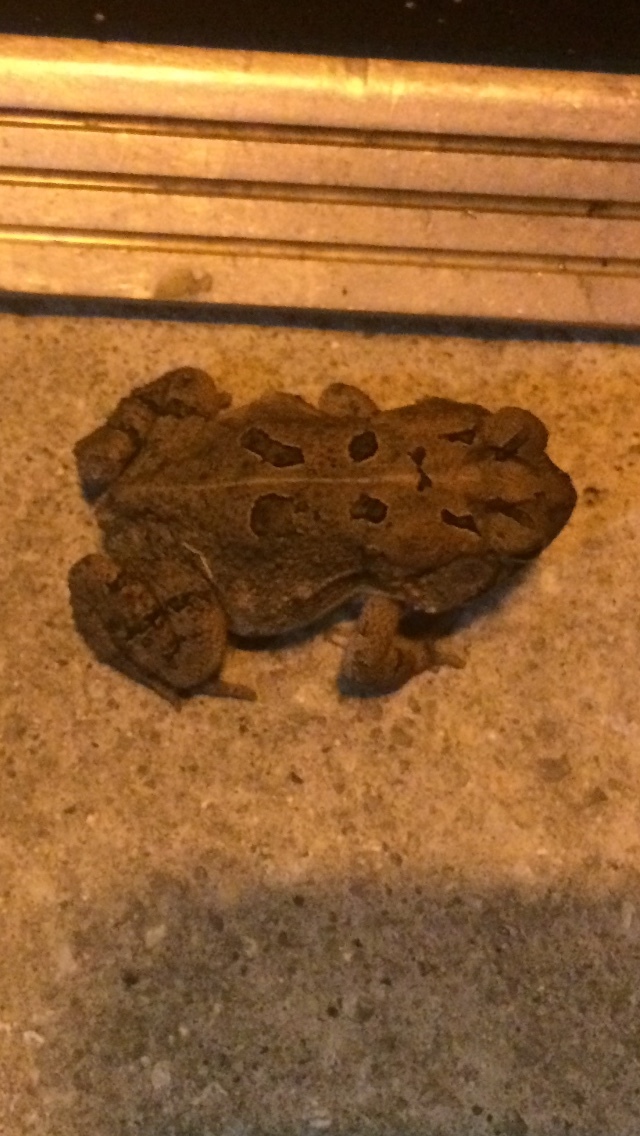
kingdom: Animalia
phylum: Chordata
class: Amphibia
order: Anura
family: Bufonidae
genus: Anaxyrus
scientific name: Anaxyrus terrestris
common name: Southern toad
